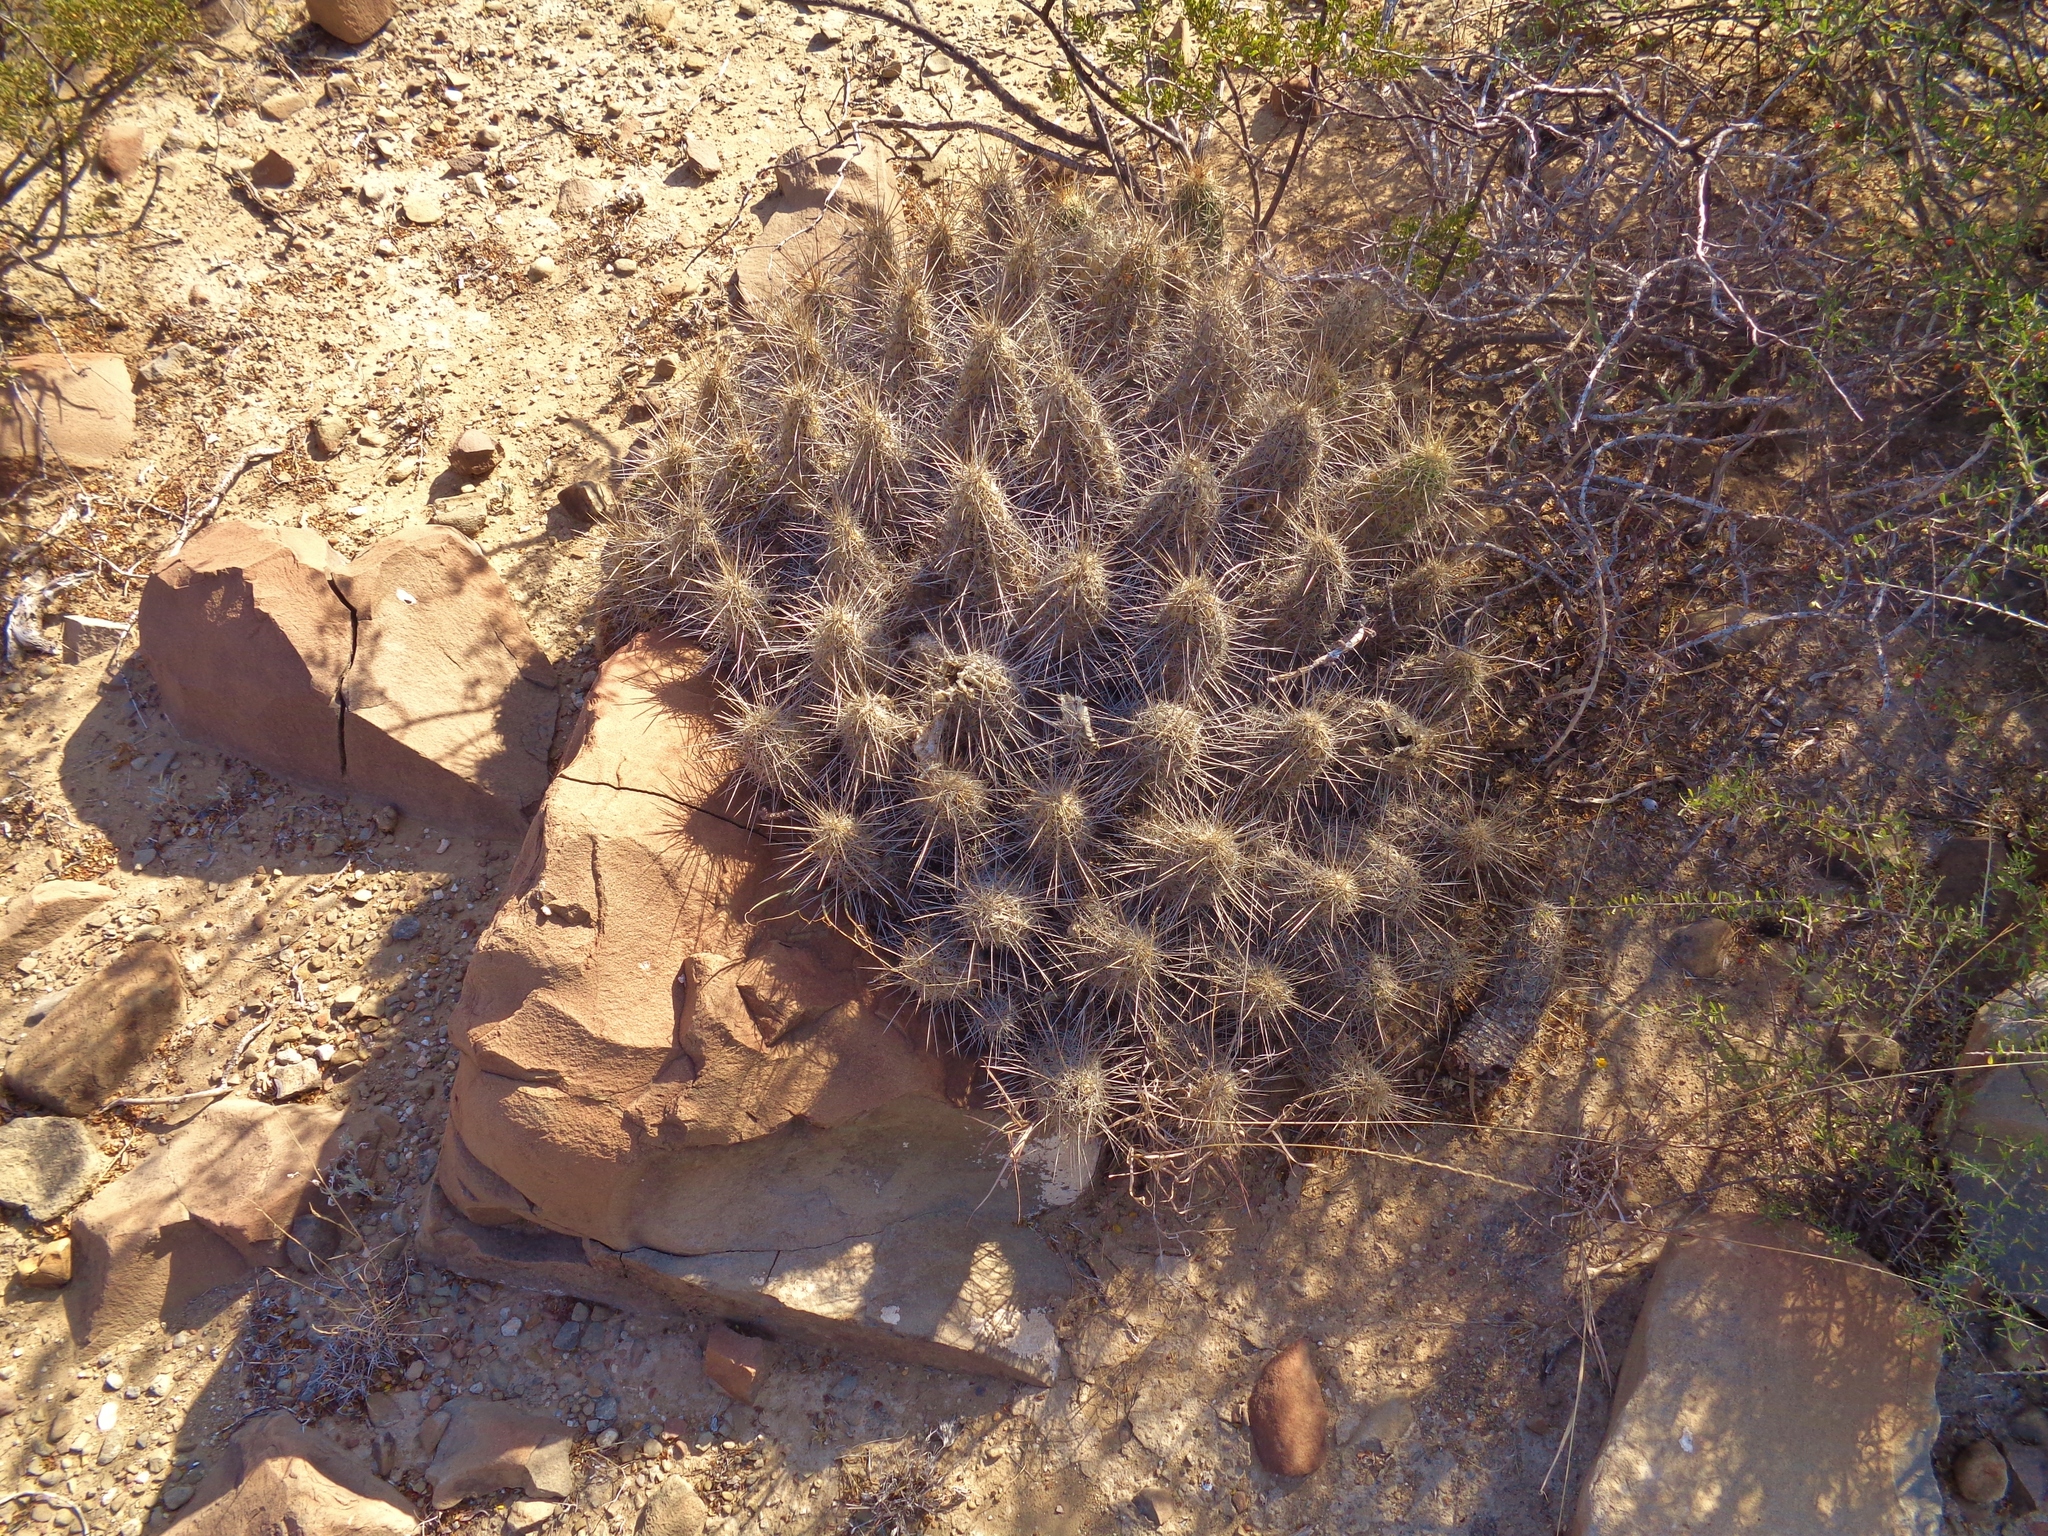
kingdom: Plantae
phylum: Tracheophyta
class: Magnoliopsida
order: Caryophyllales
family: Cactaceae
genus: Echinocereus
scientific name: Echinocereus stramineus
